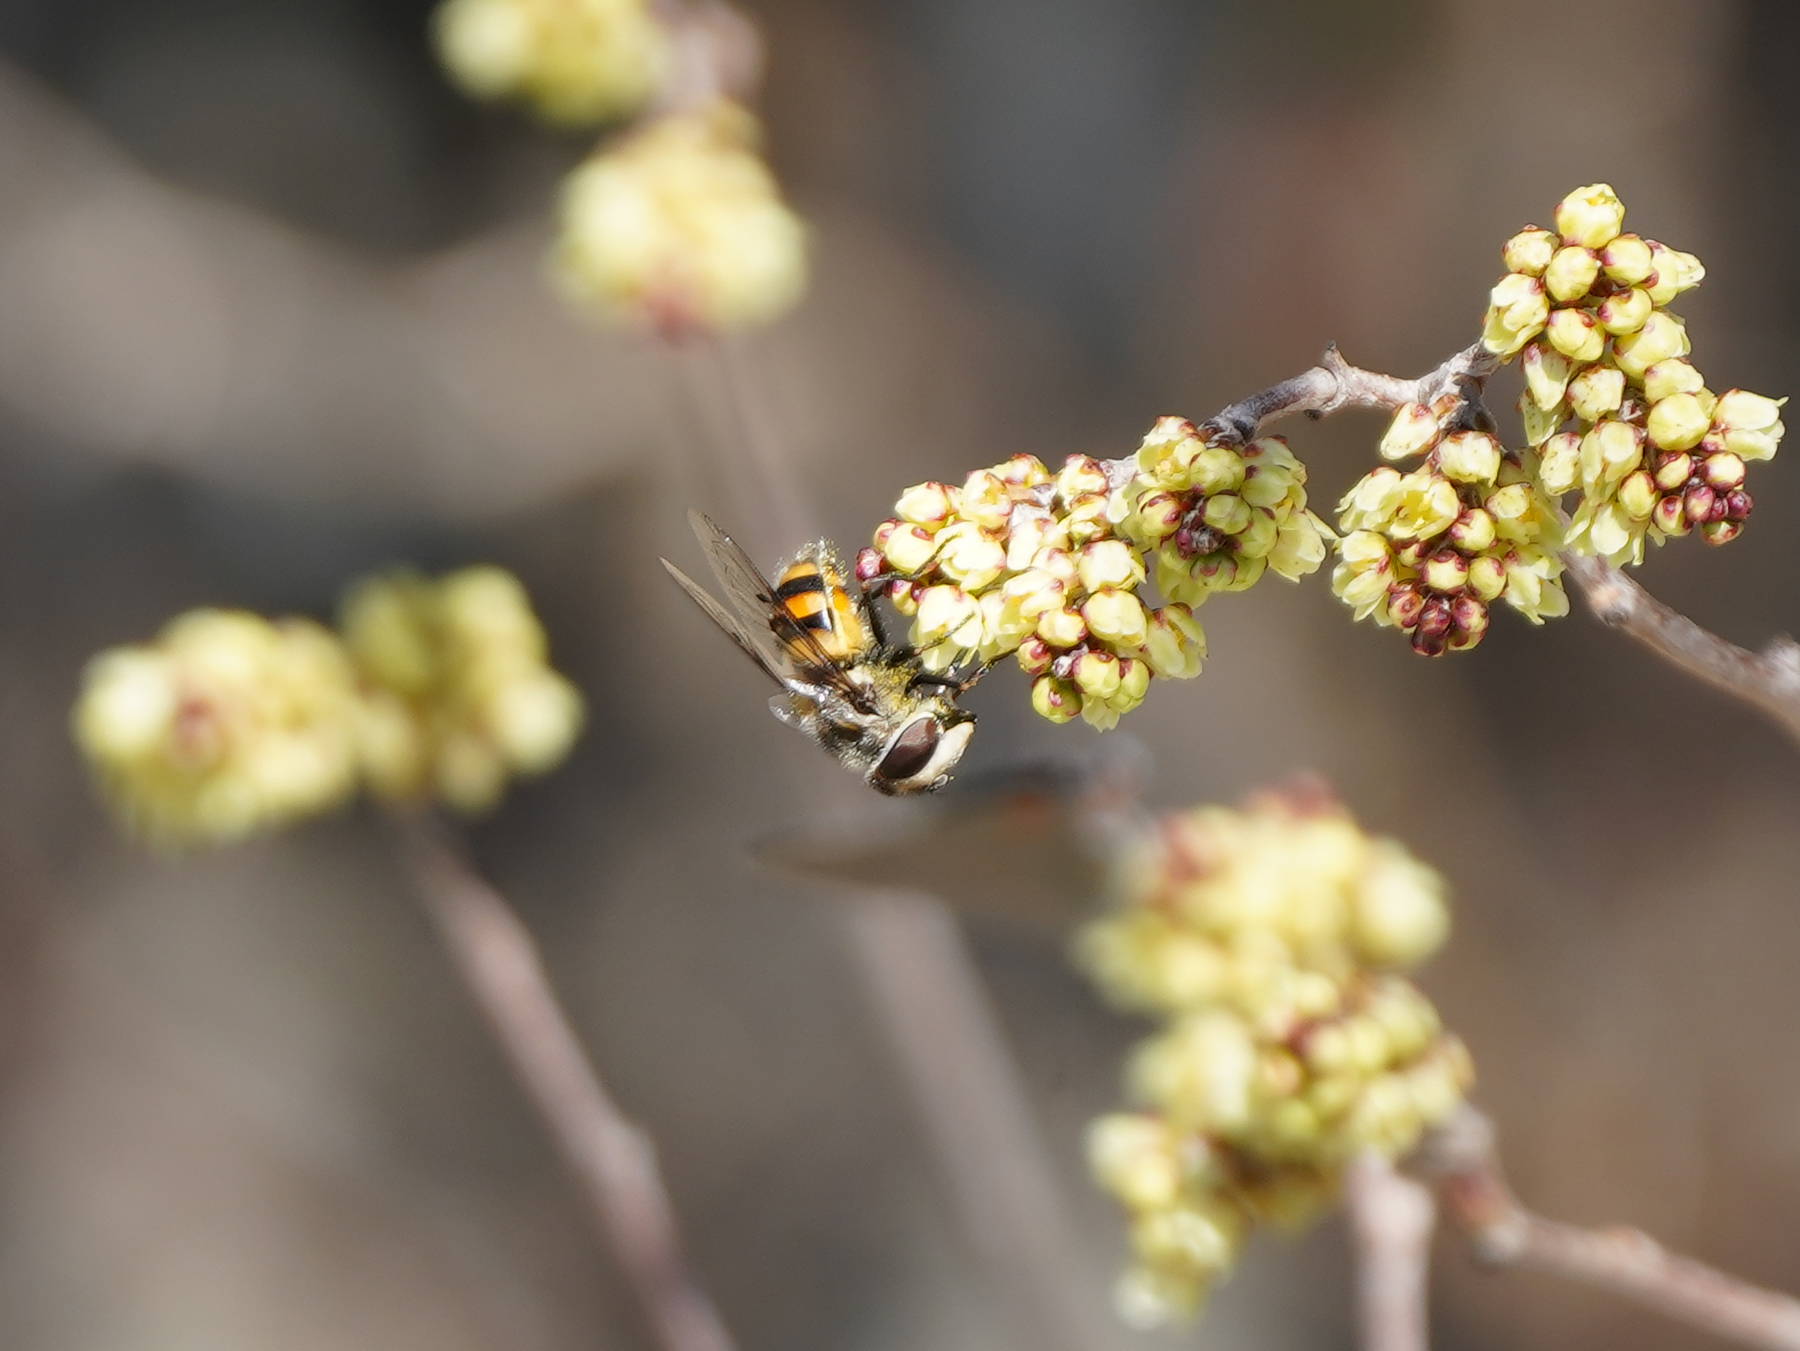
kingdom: Animalia
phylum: Arthropoda
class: Insecta
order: Diptera
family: Syrphidae
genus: Copestylum
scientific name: Copestylum avidum
